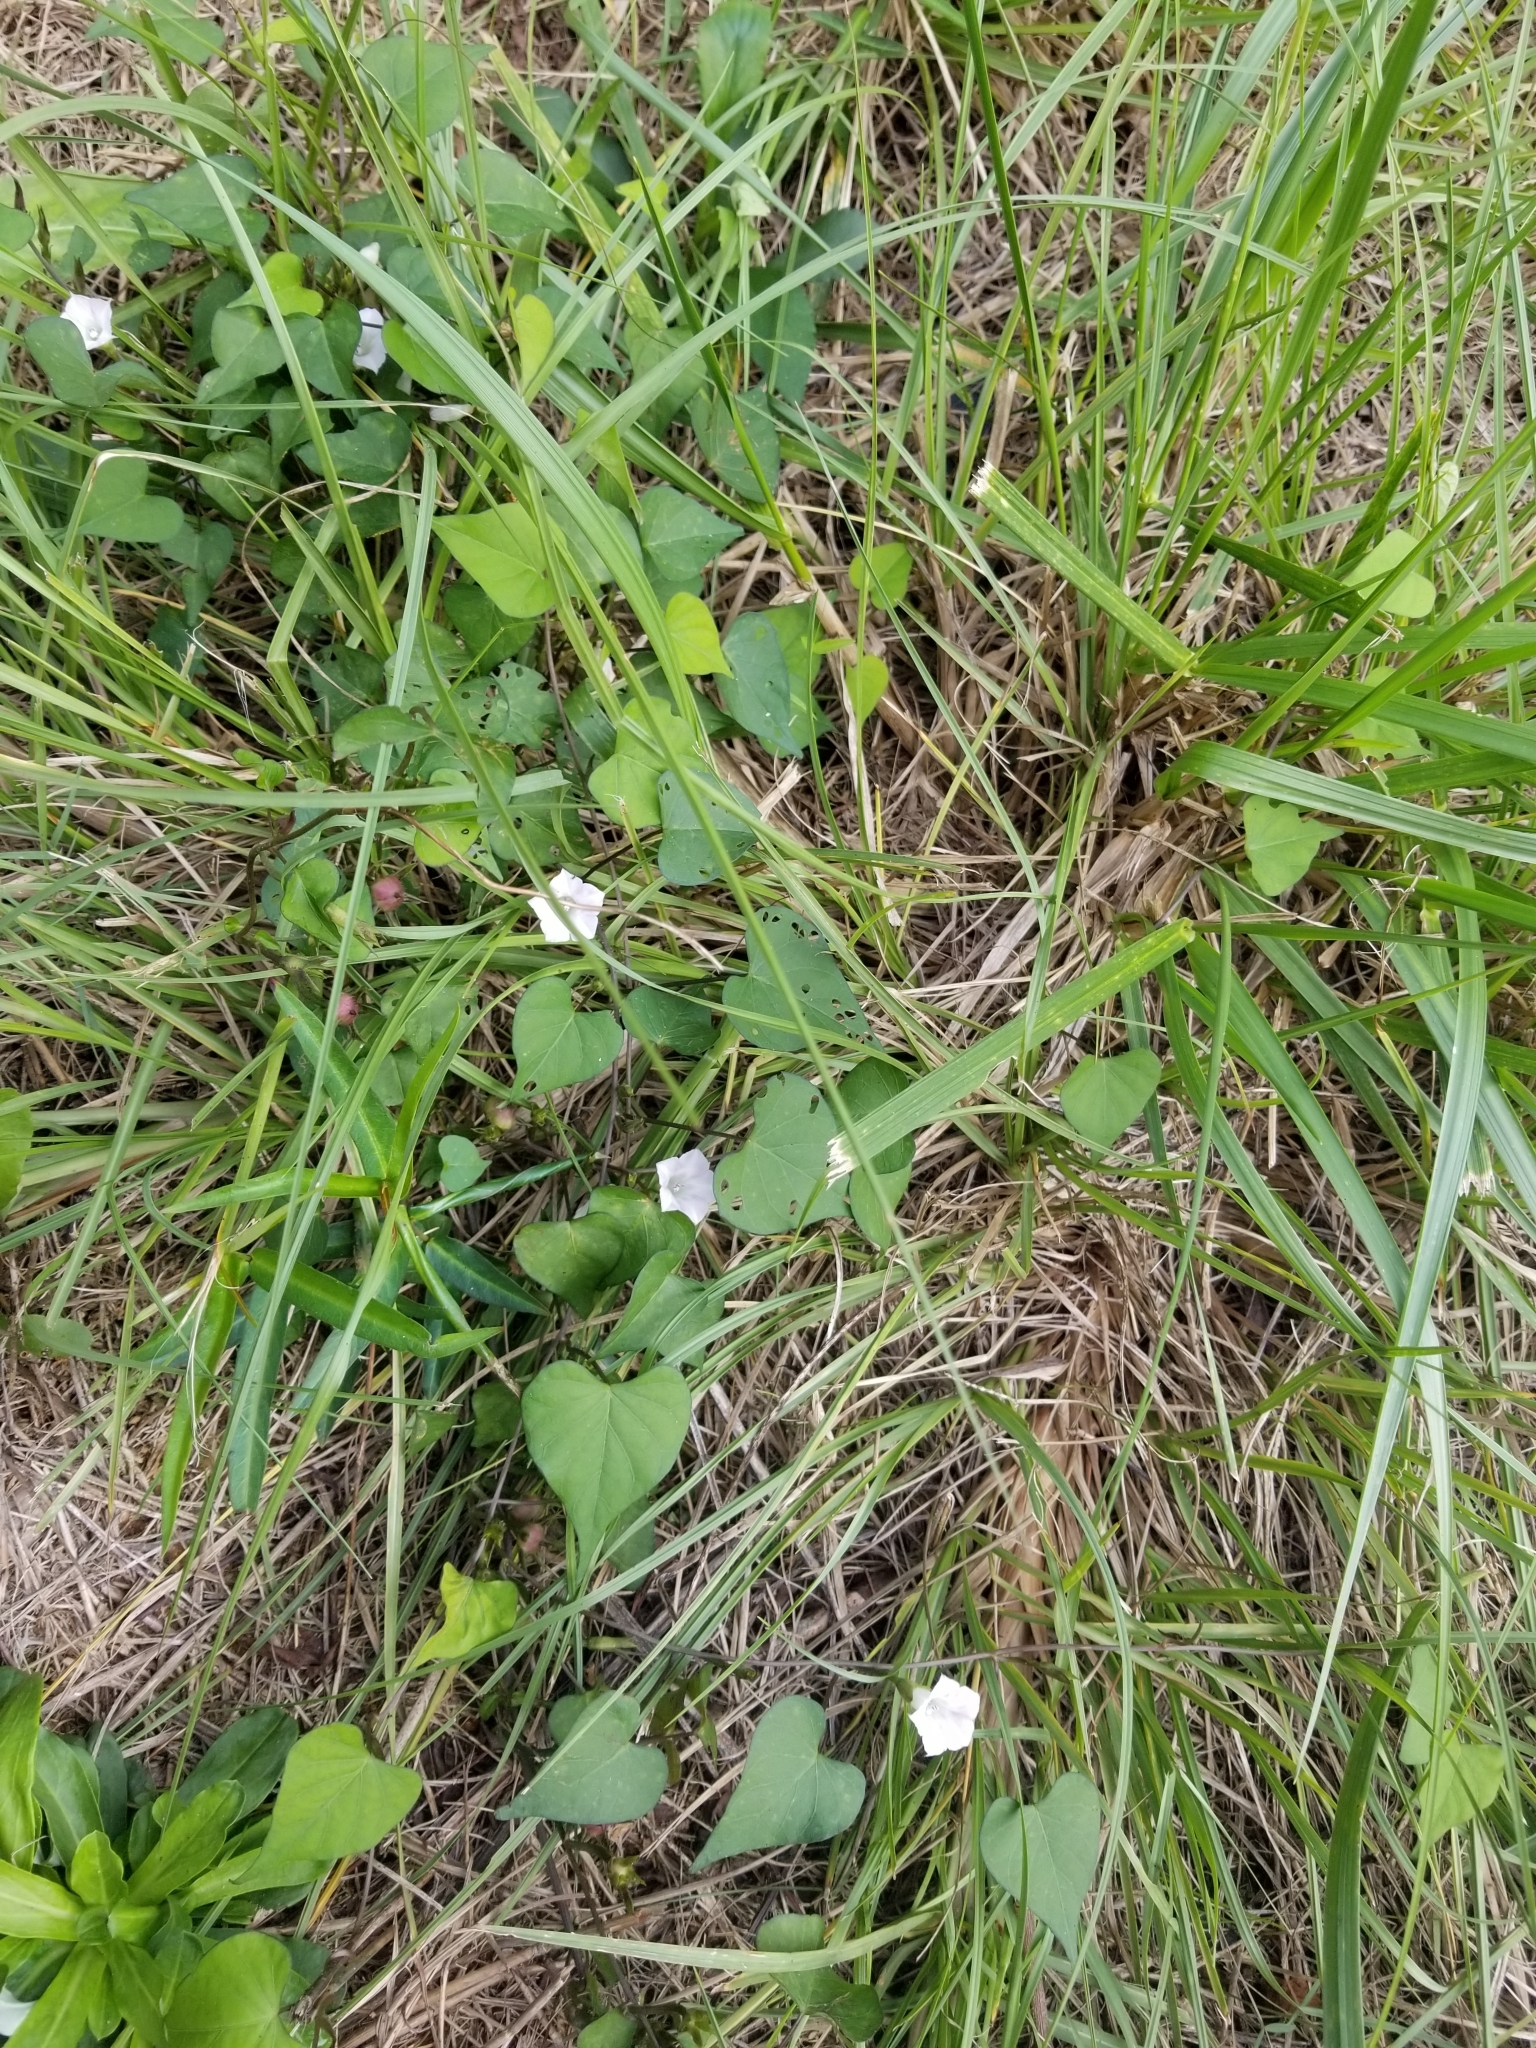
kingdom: Plantae
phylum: Tracheophyta
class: Magnoliopsida
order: Solanales
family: Convolvulaceae
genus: Ipomoea
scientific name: Ipomoea lacunosa
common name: White morning-glory
